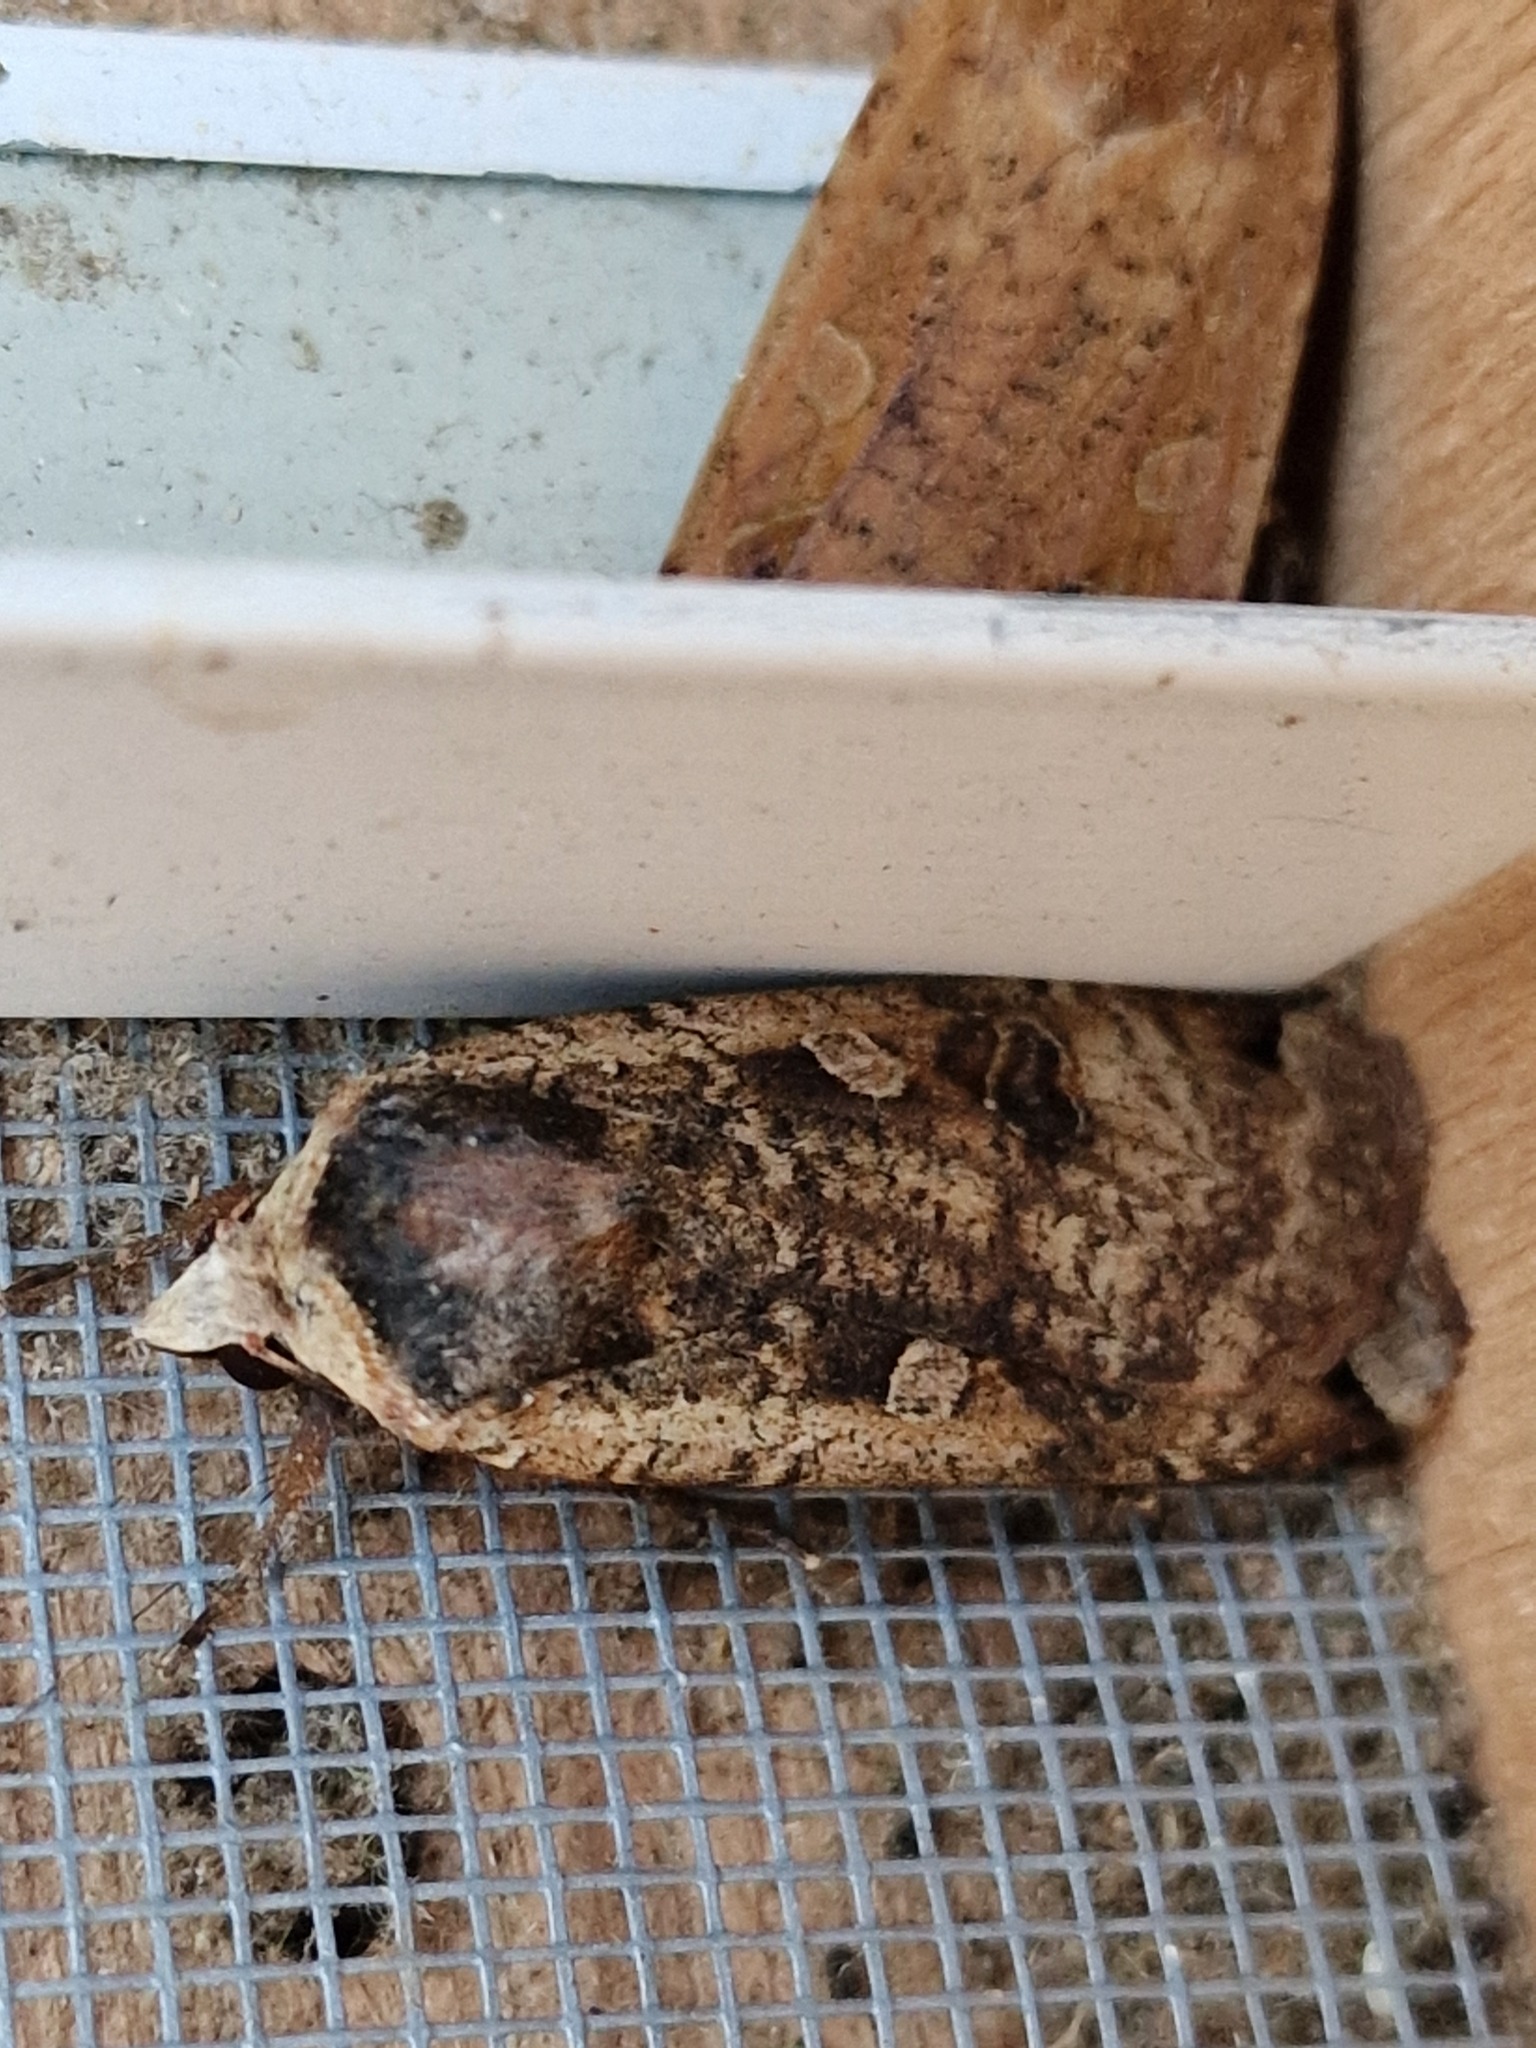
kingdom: Animalia
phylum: Arthropoda
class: Insecta
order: Lepidoptera
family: Noctuidae
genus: Noctua
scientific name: Noctua pronuba
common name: Large yellow underwing
